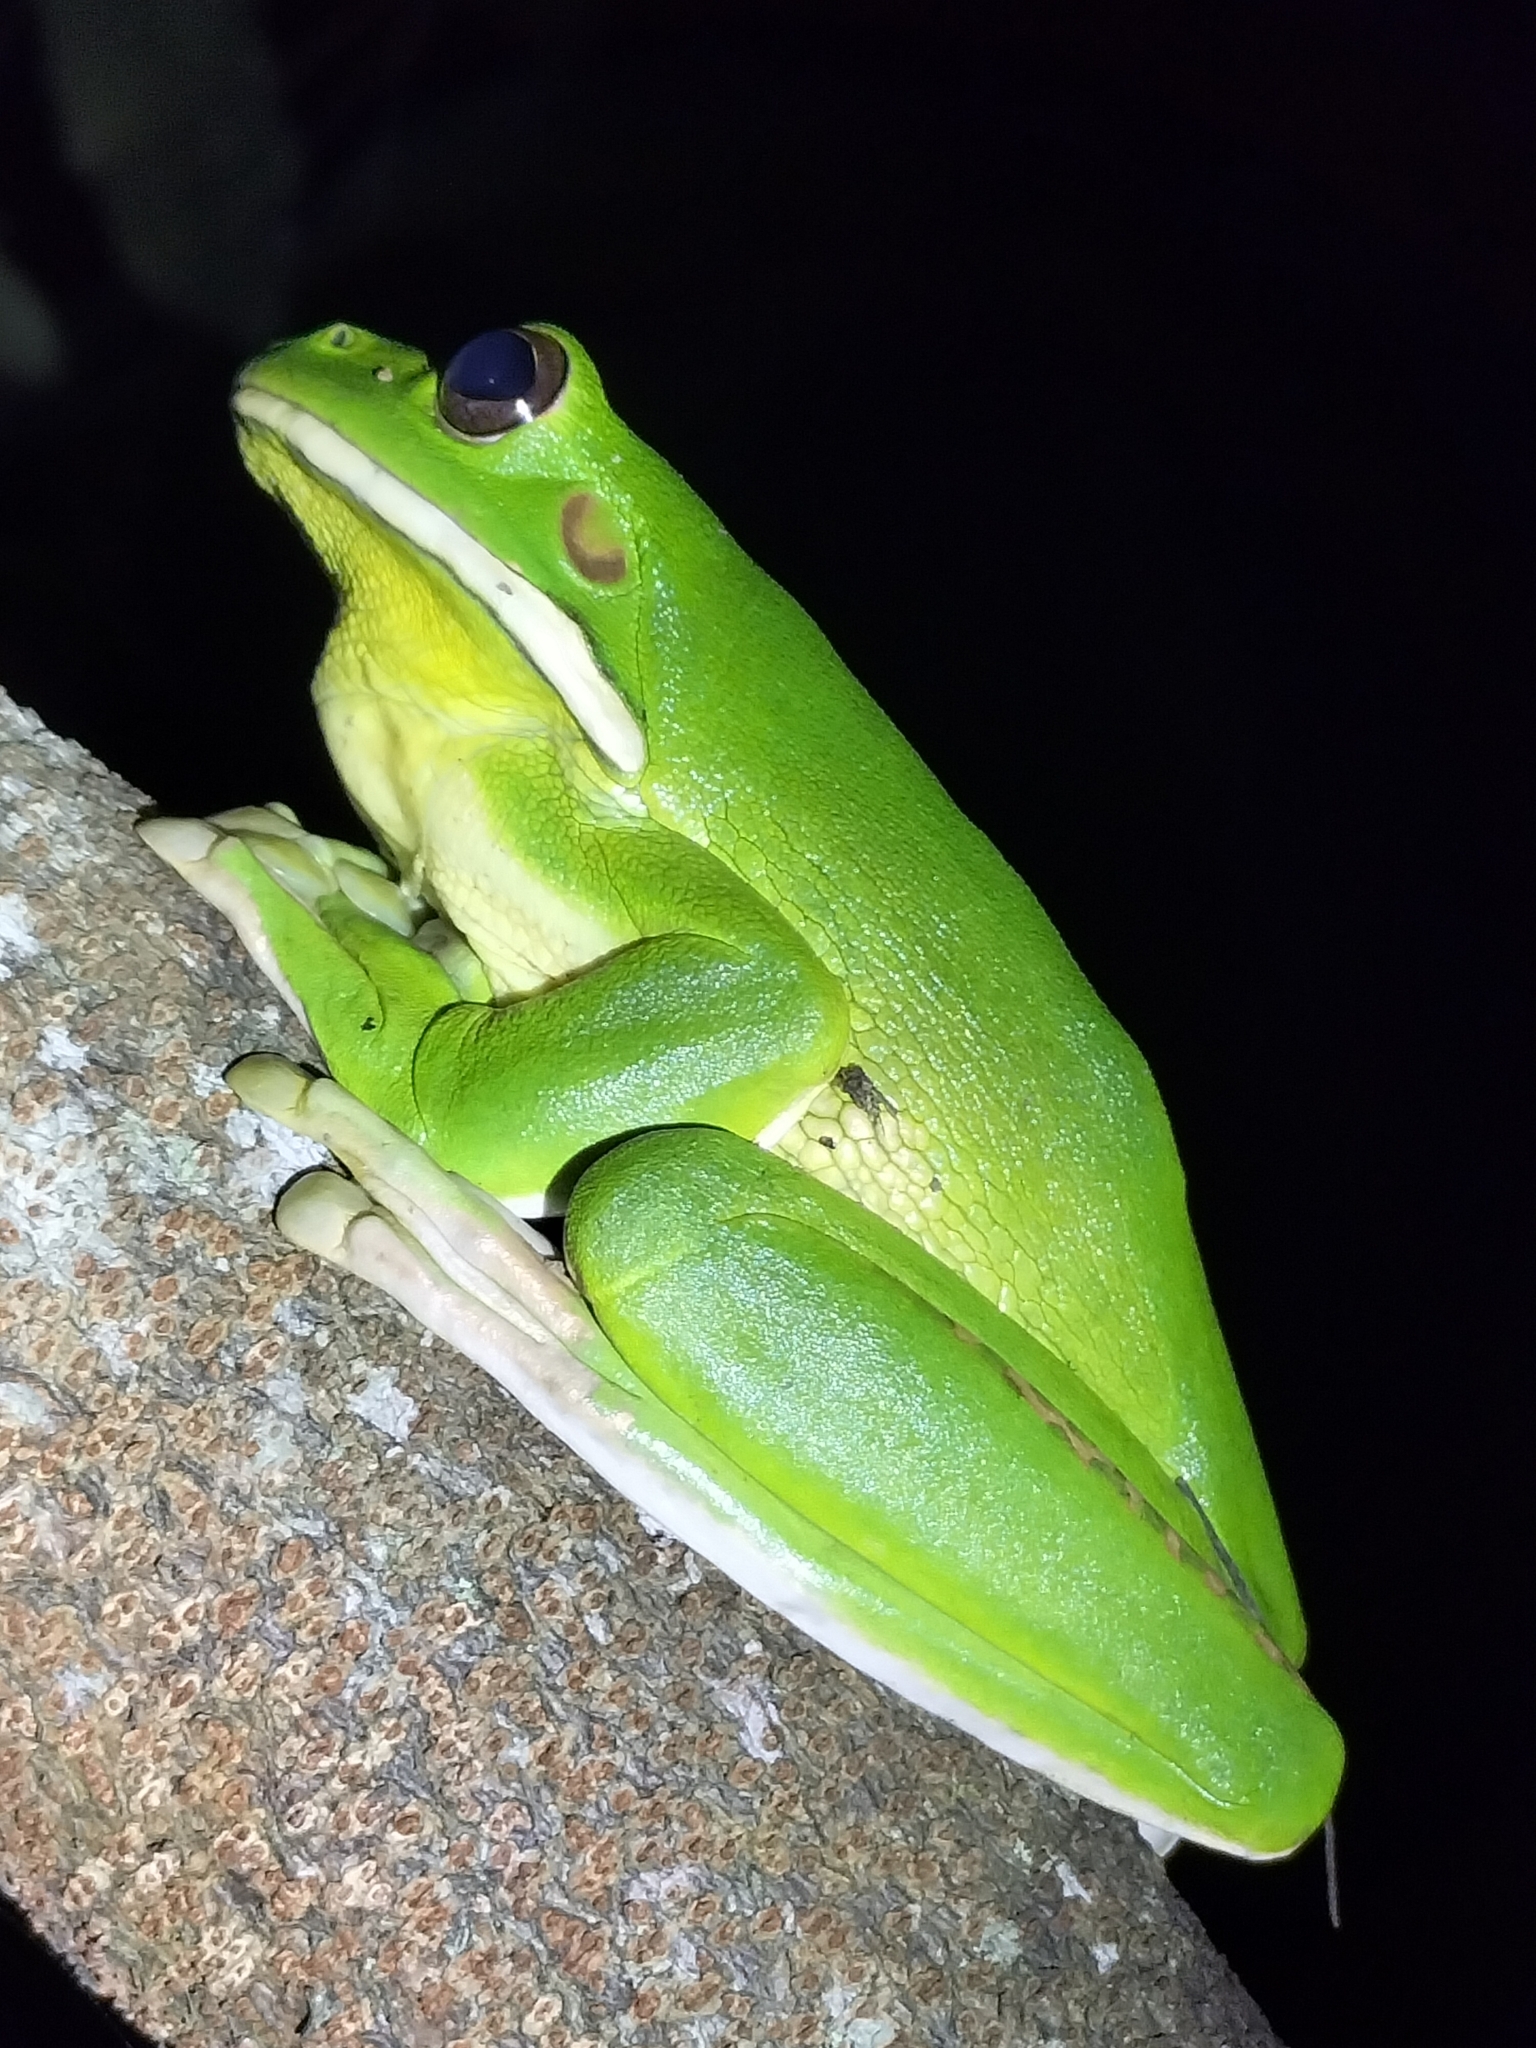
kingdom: Animalia
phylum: Chordata
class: Amphibia
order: Anura
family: Pelodryadidae
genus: Nyctimystes
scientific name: Nyctimystes infrafrenatus
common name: Australian giant treefrog
